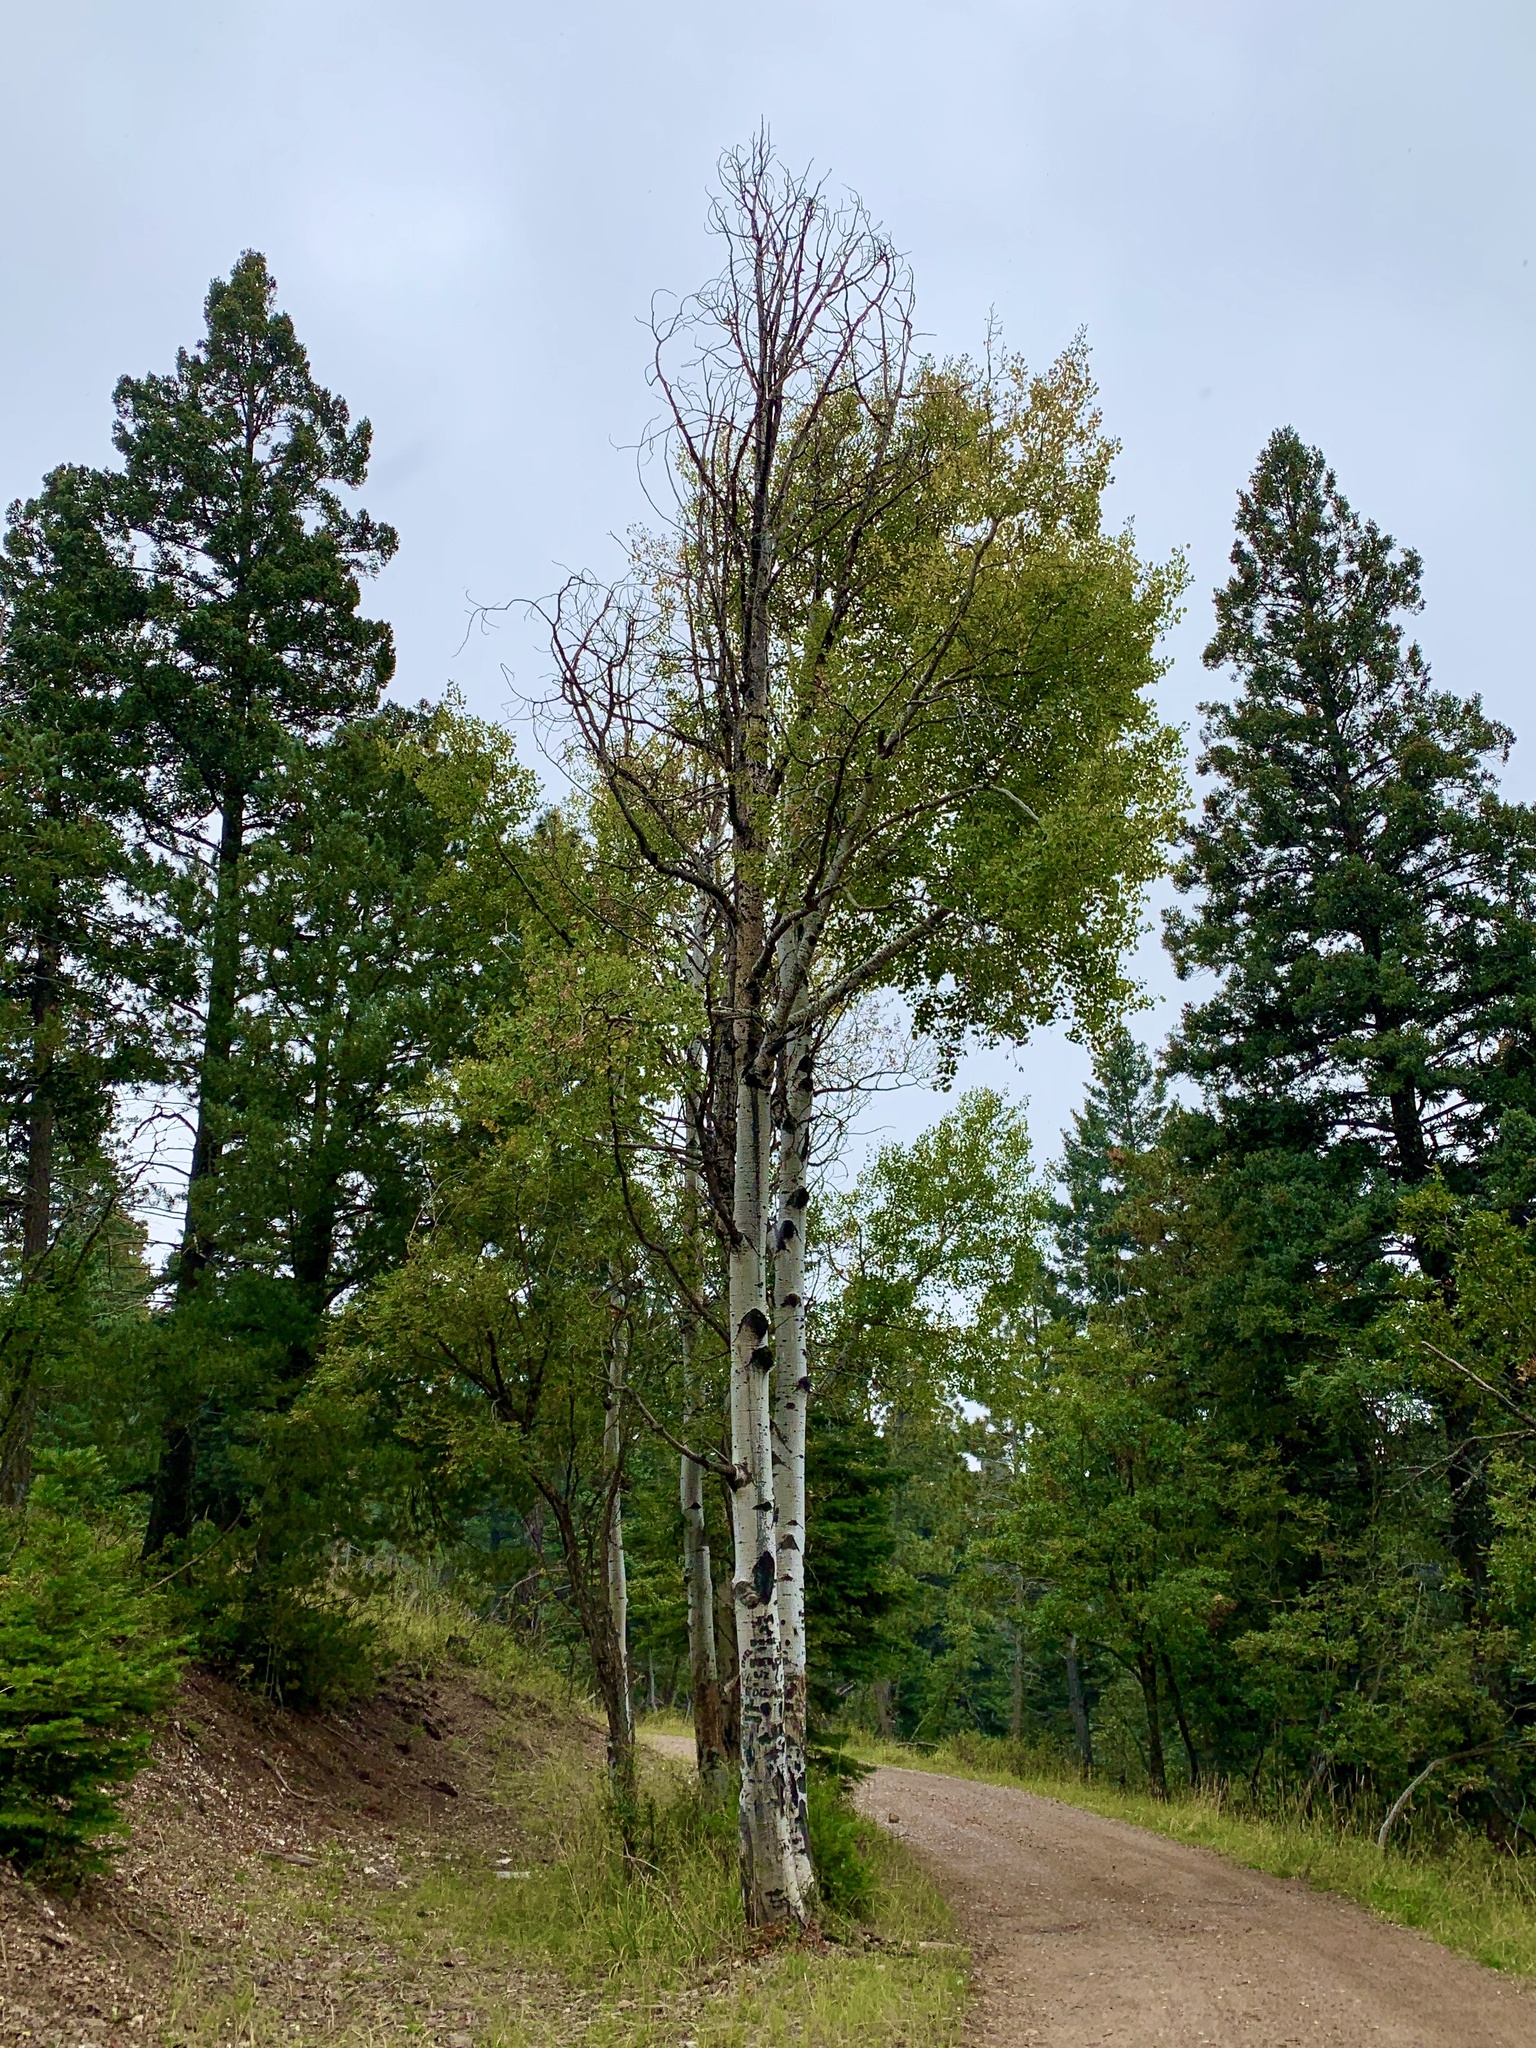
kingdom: Plantae
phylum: Tracheophyta
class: Magnoliopsida
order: Malpighiales
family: Salicaceae
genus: Populus
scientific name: Populus tremuloides
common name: Quaking aspen
